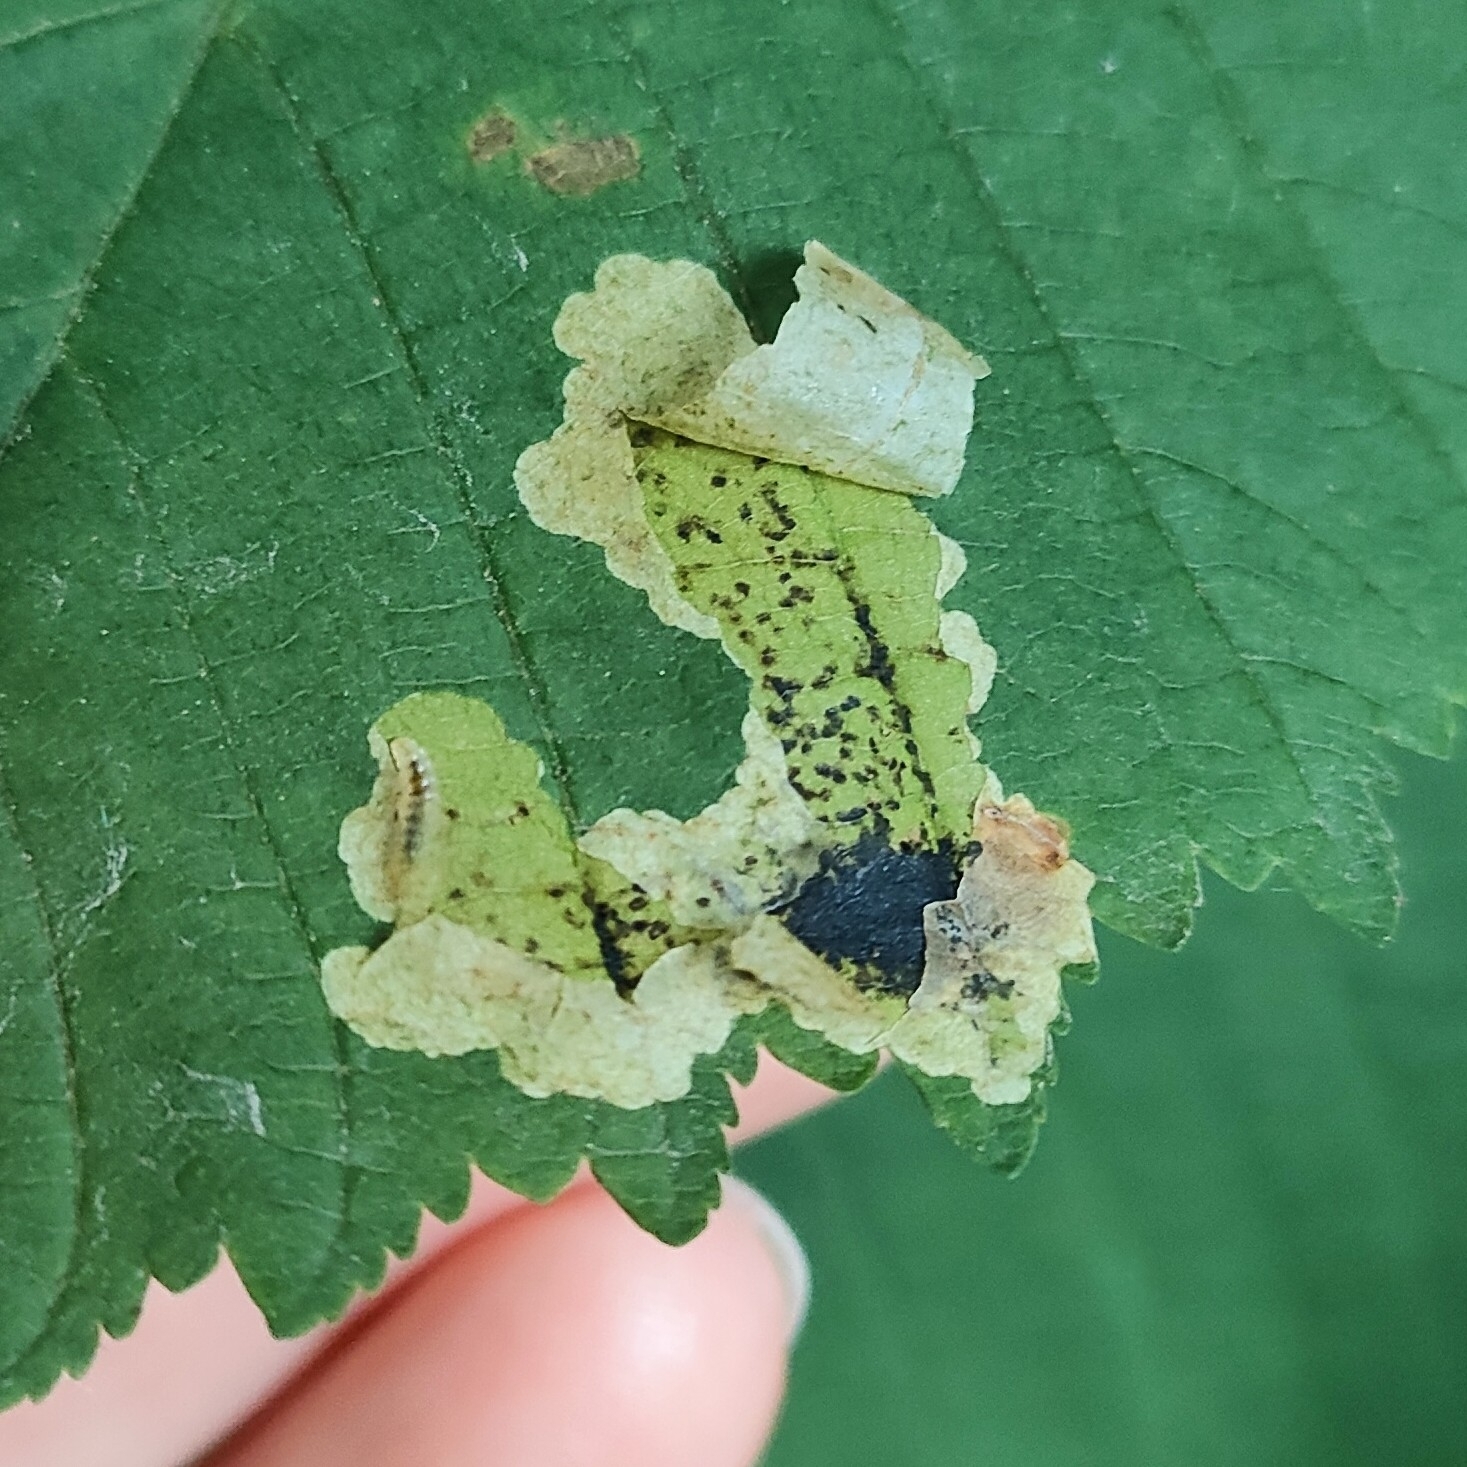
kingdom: Animalia
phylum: Arthropoda
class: Insecta
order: Lepidoptera
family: Gracillariidae
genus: Cameraria
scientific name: Cameraria ohridella
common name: Horse-chestnut leaf-miner
